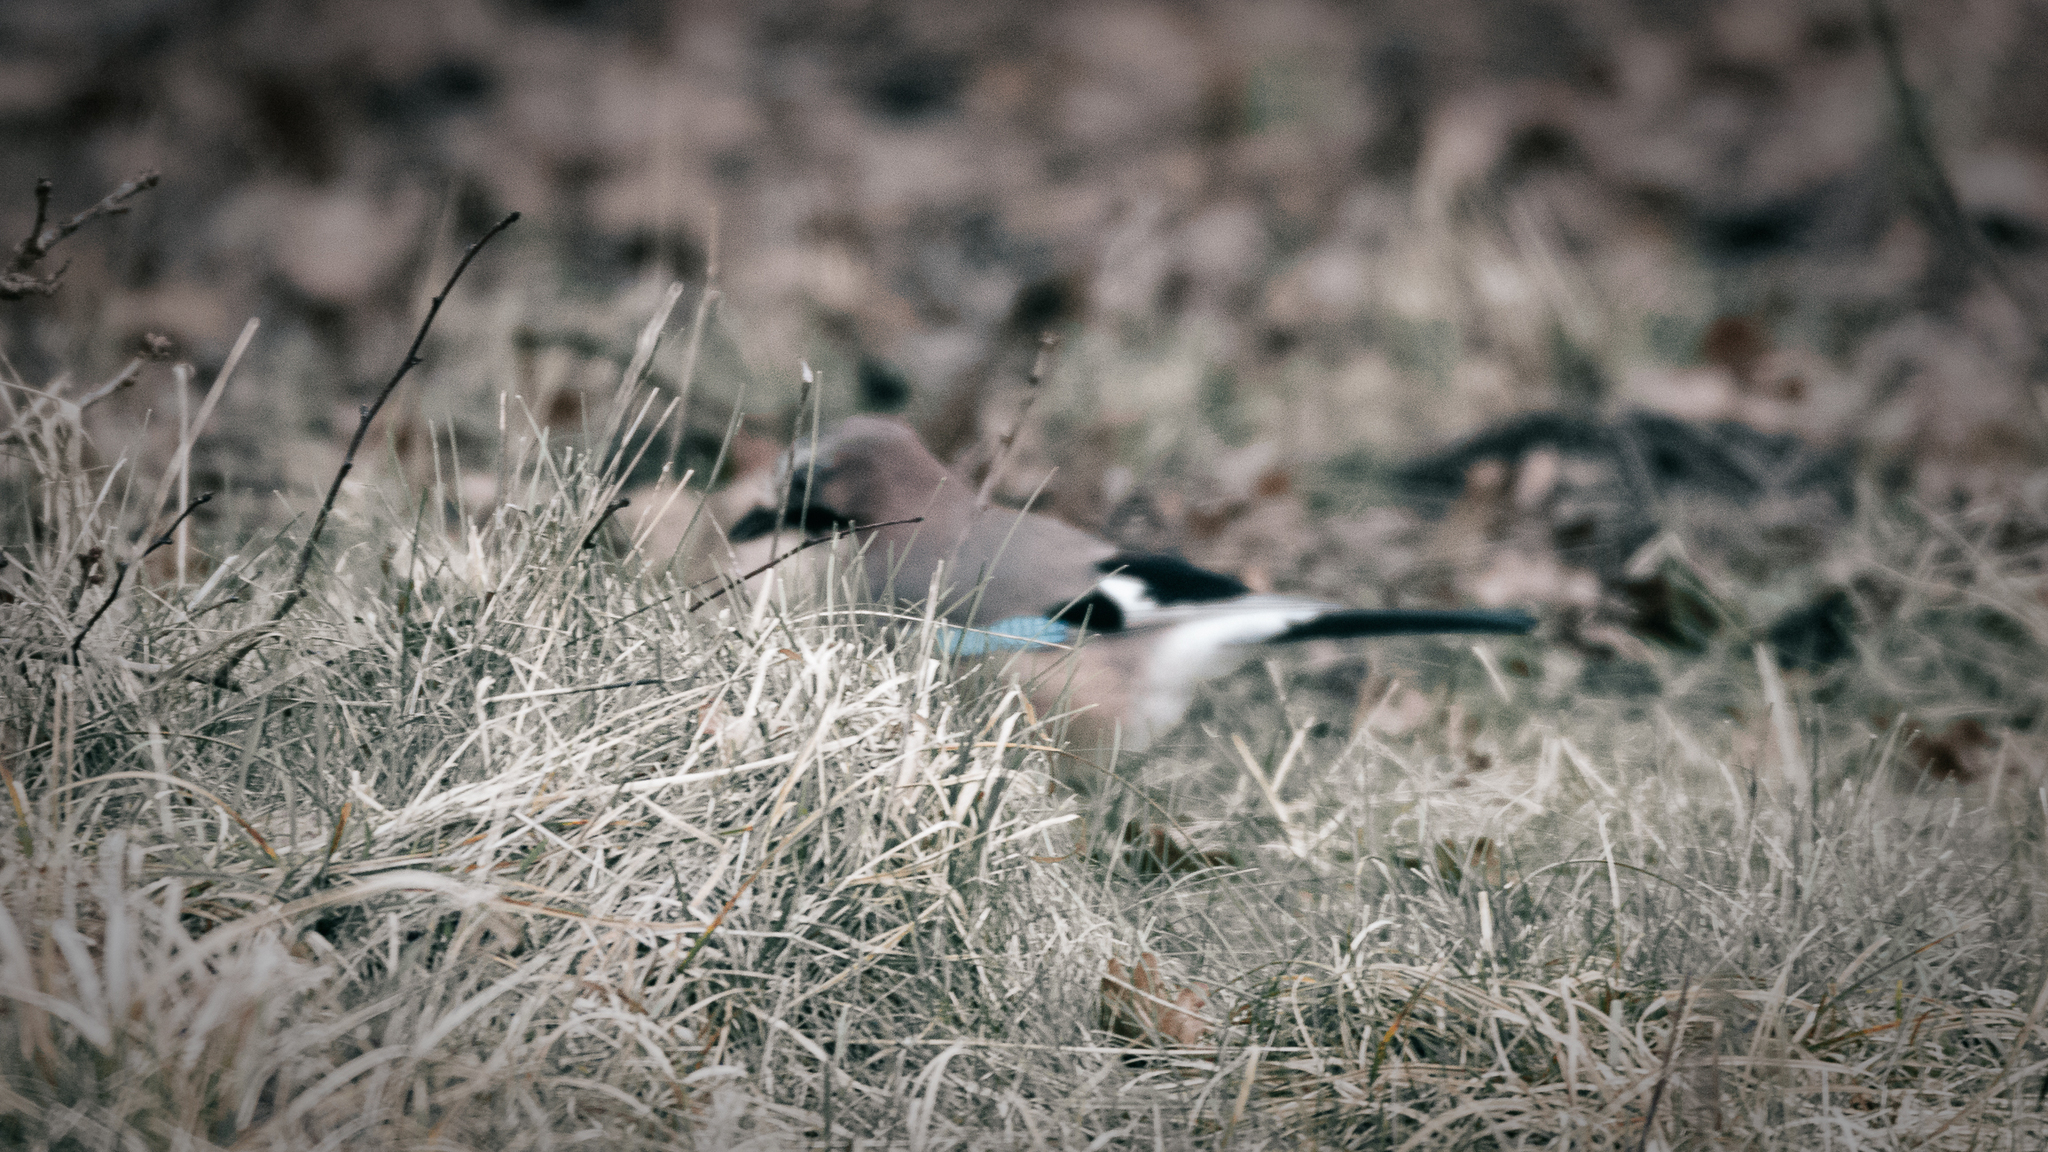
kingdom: Animalia
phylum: Chordata
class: Aves
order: Passeriformes
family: Corvidae
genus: Garrulus
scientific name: Garrulus glandarius
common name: Eurasian jay
